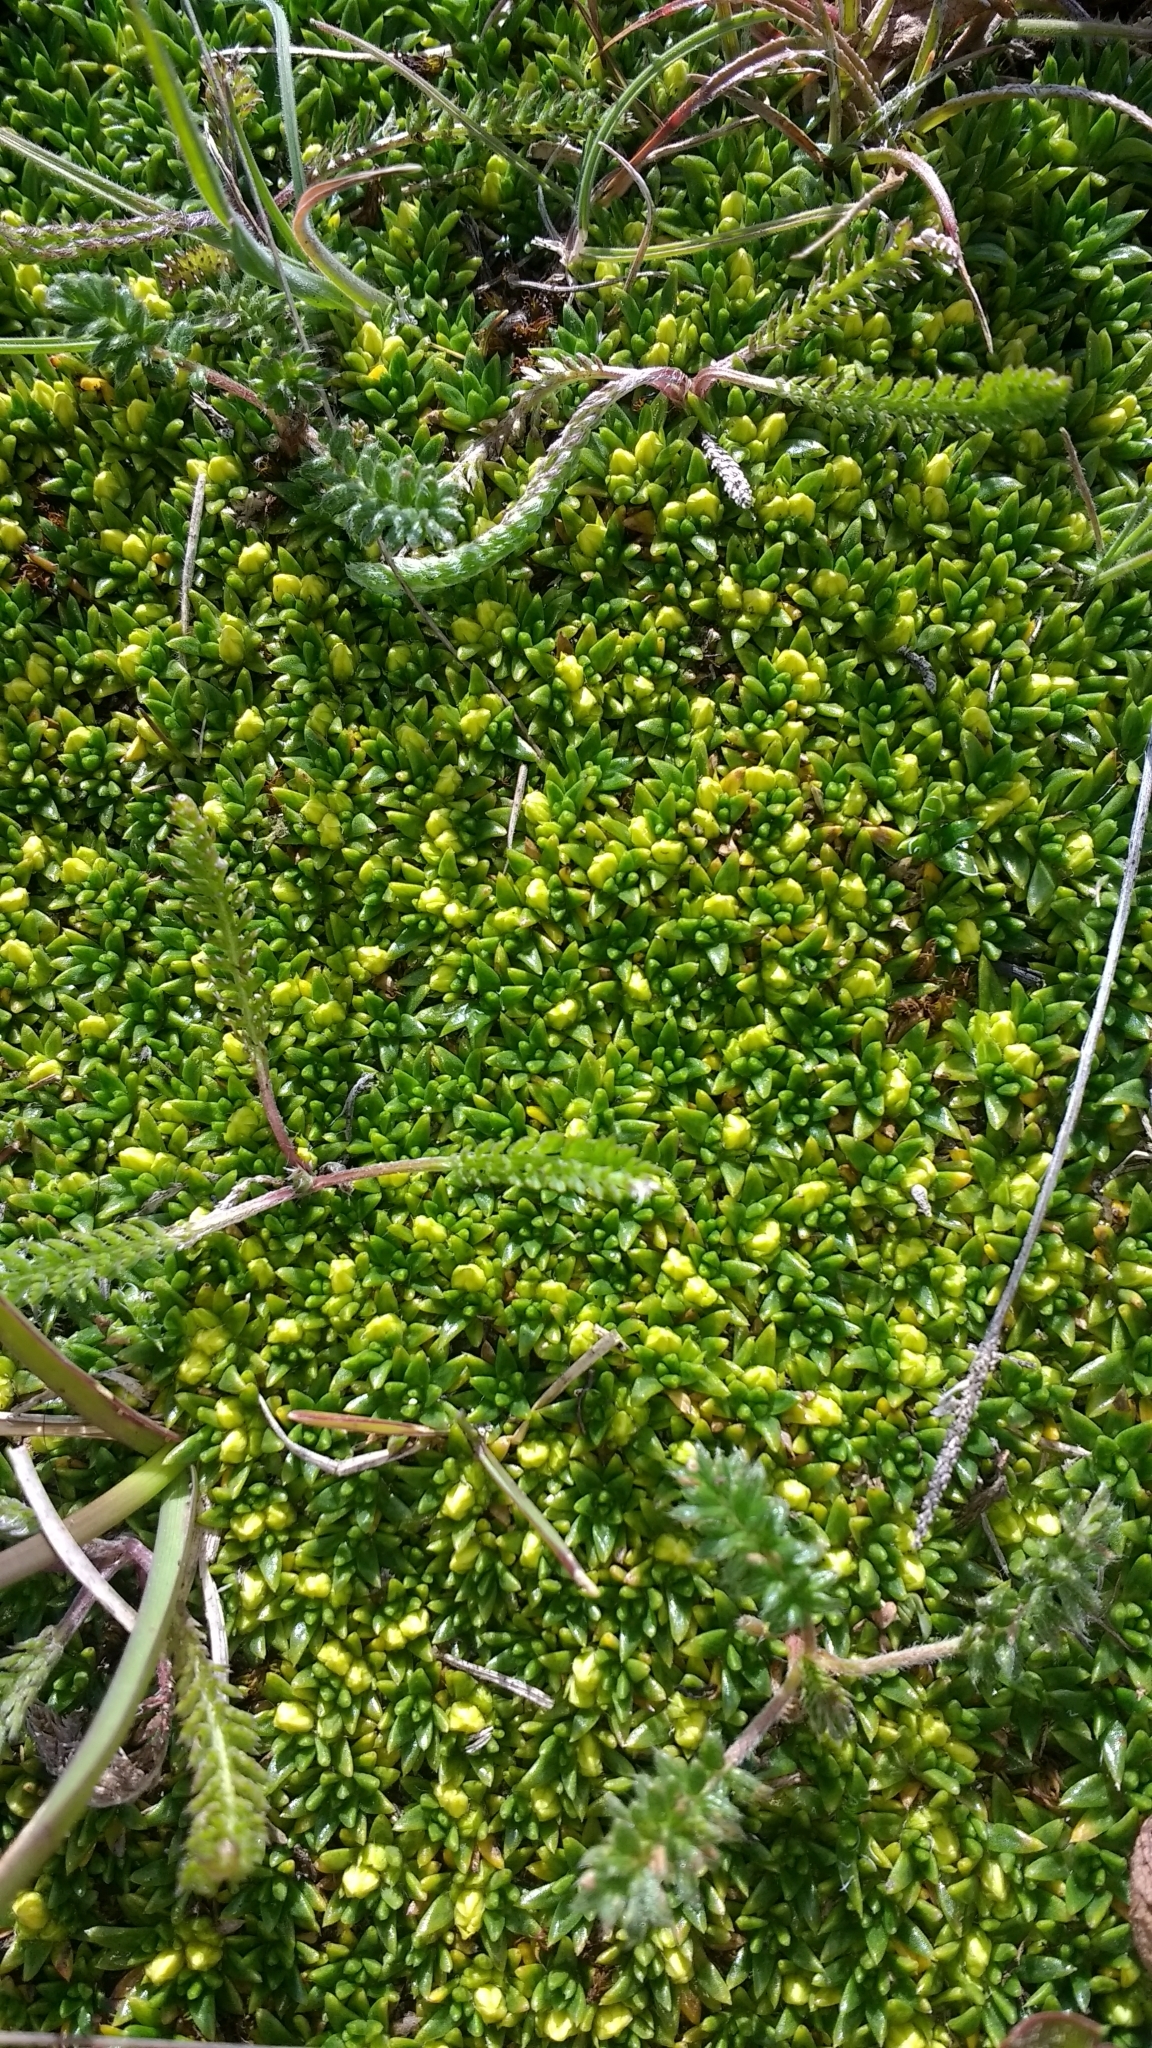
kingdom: Plantae
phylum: Tracheophyta
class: Magnoliopsida
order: Apiales
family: Apiaceae
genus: Azorella
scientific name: Azorella lycopodioides
